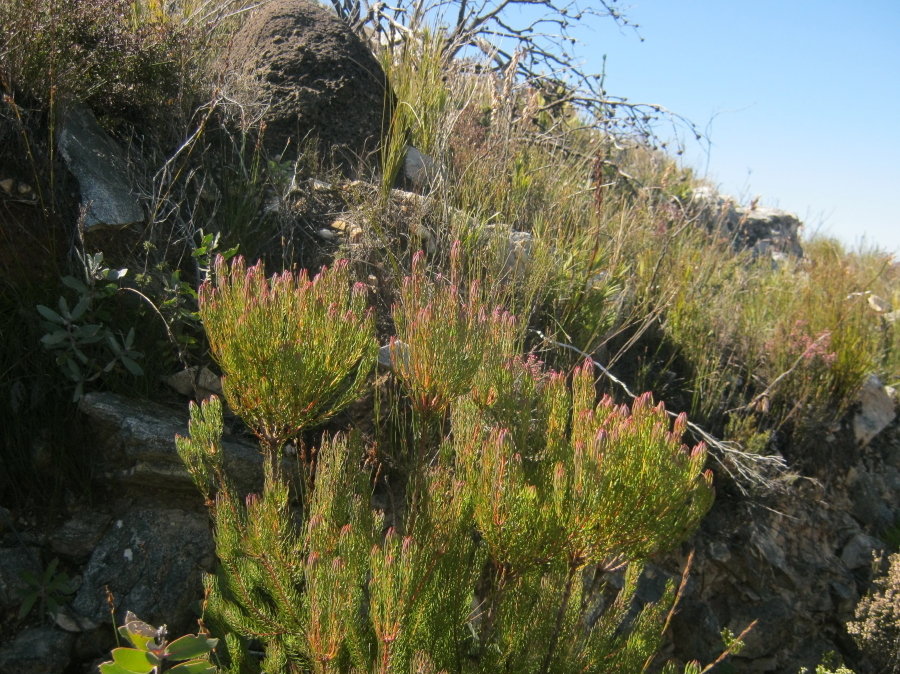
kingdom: Plantae
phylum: Tracheophyta
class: Magnoliopsida
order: Proteales
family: Proteaceae
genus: Leucadendron
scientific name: Leucadendron comosum
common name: Ridge-cone conebush
